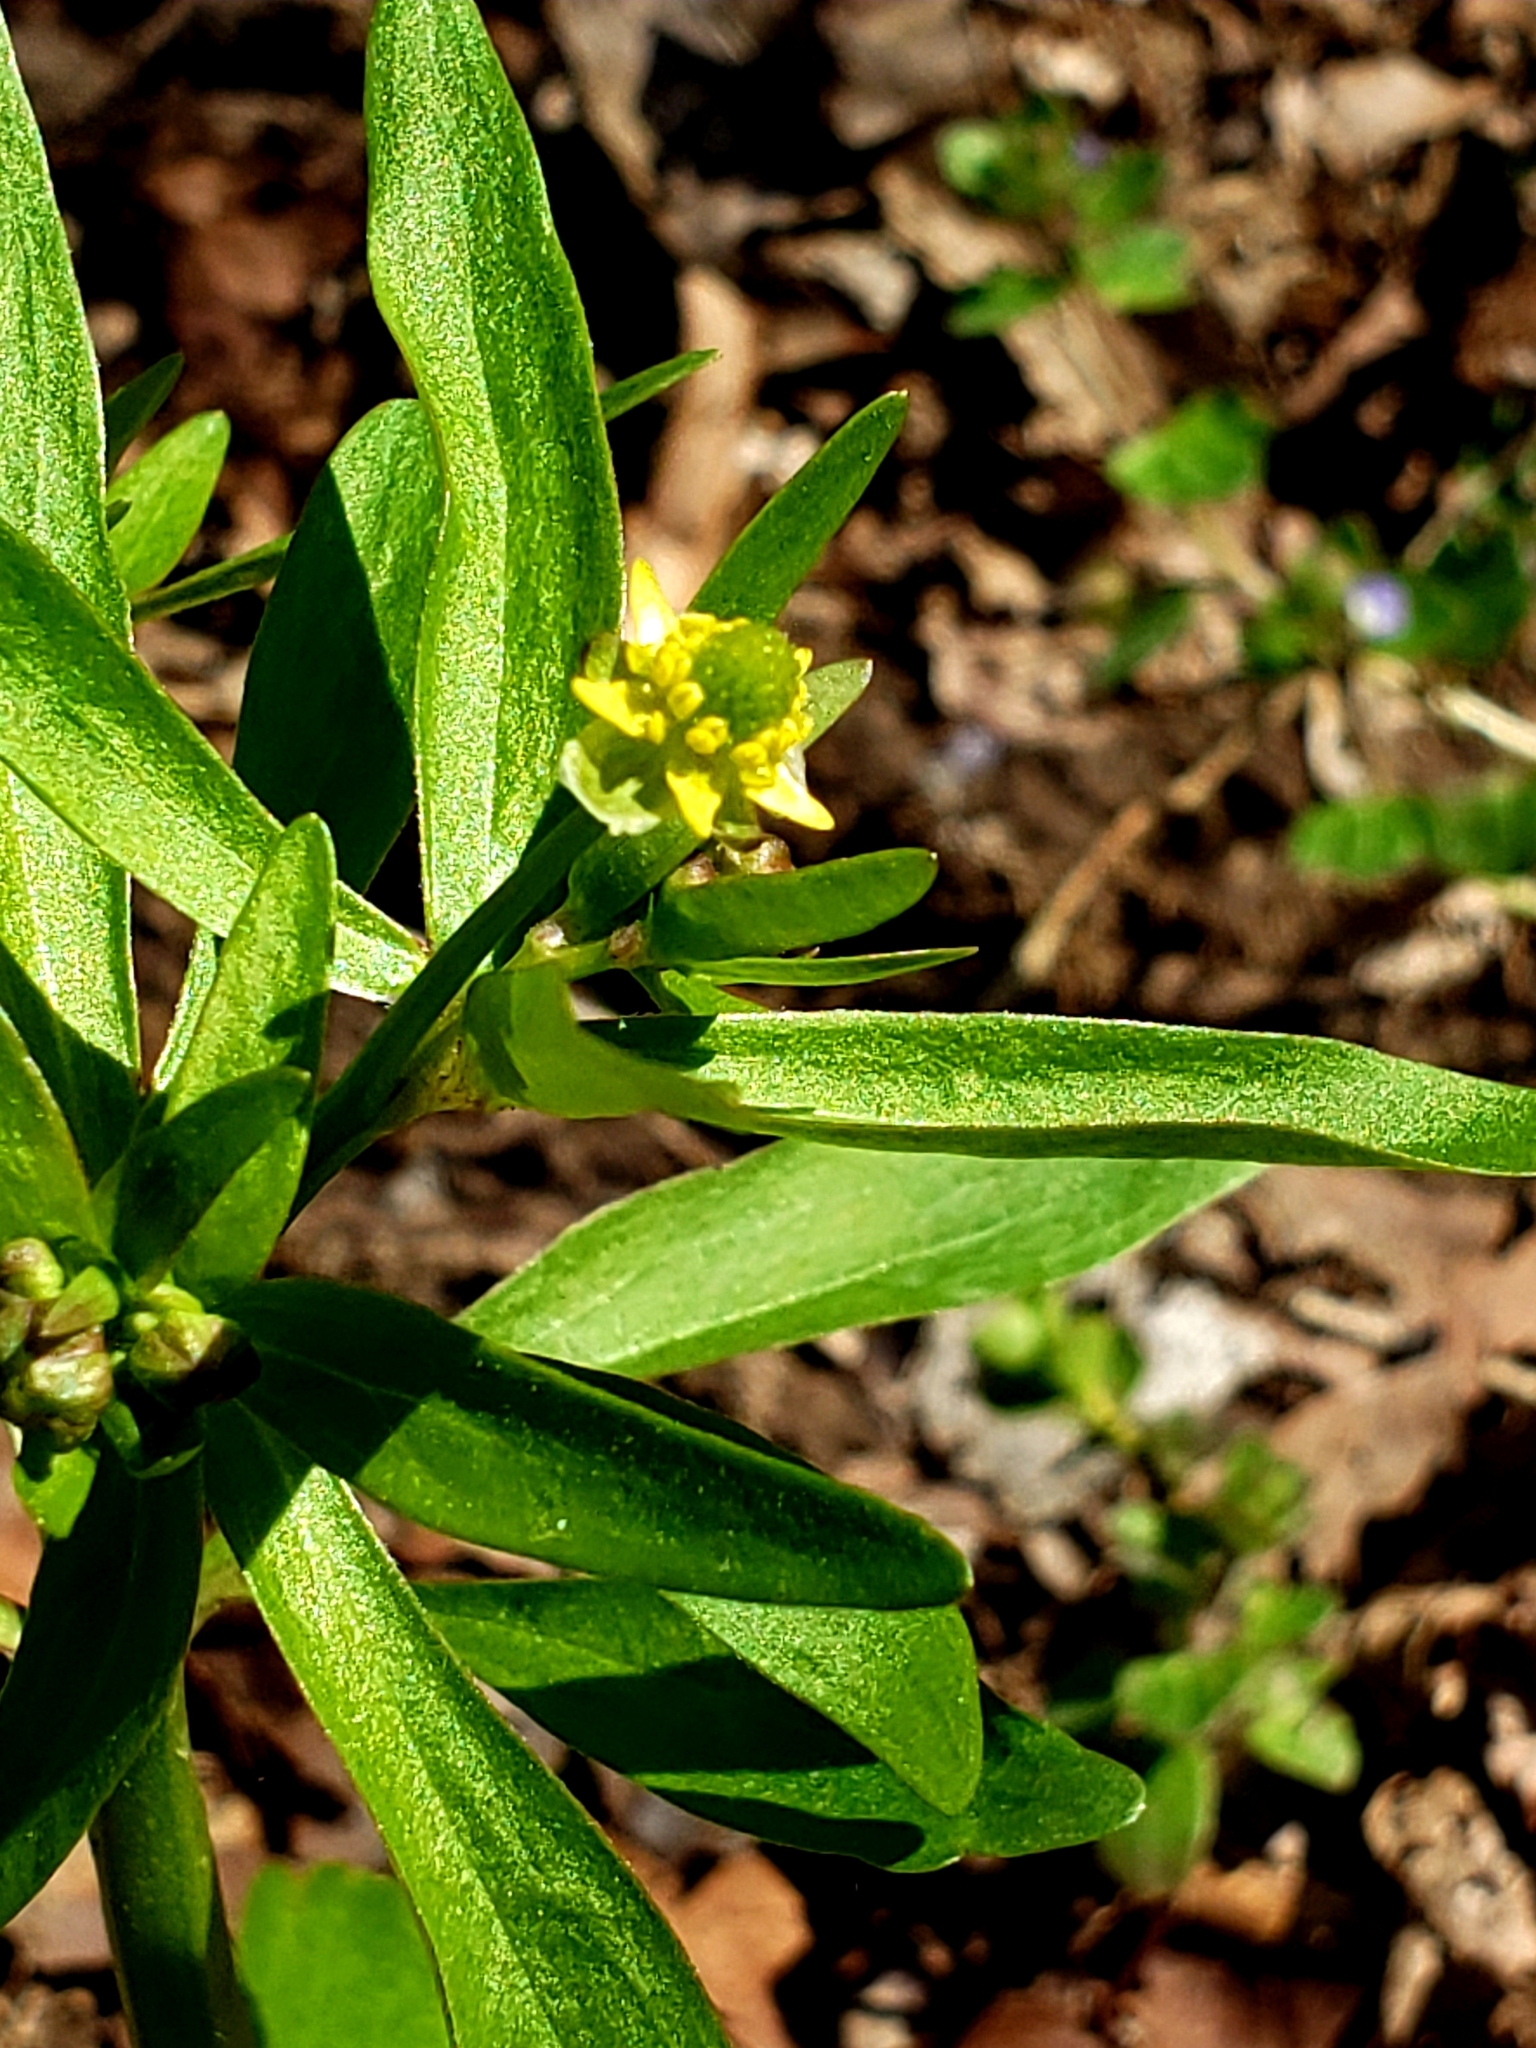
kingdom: Plantae
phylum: Tracheophyta
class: Magnoliopsida
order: Ranunculales
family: Ranunculaceae
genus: Ranunculus
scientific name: Ranunculus abortivus
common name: Early wood buttercup
